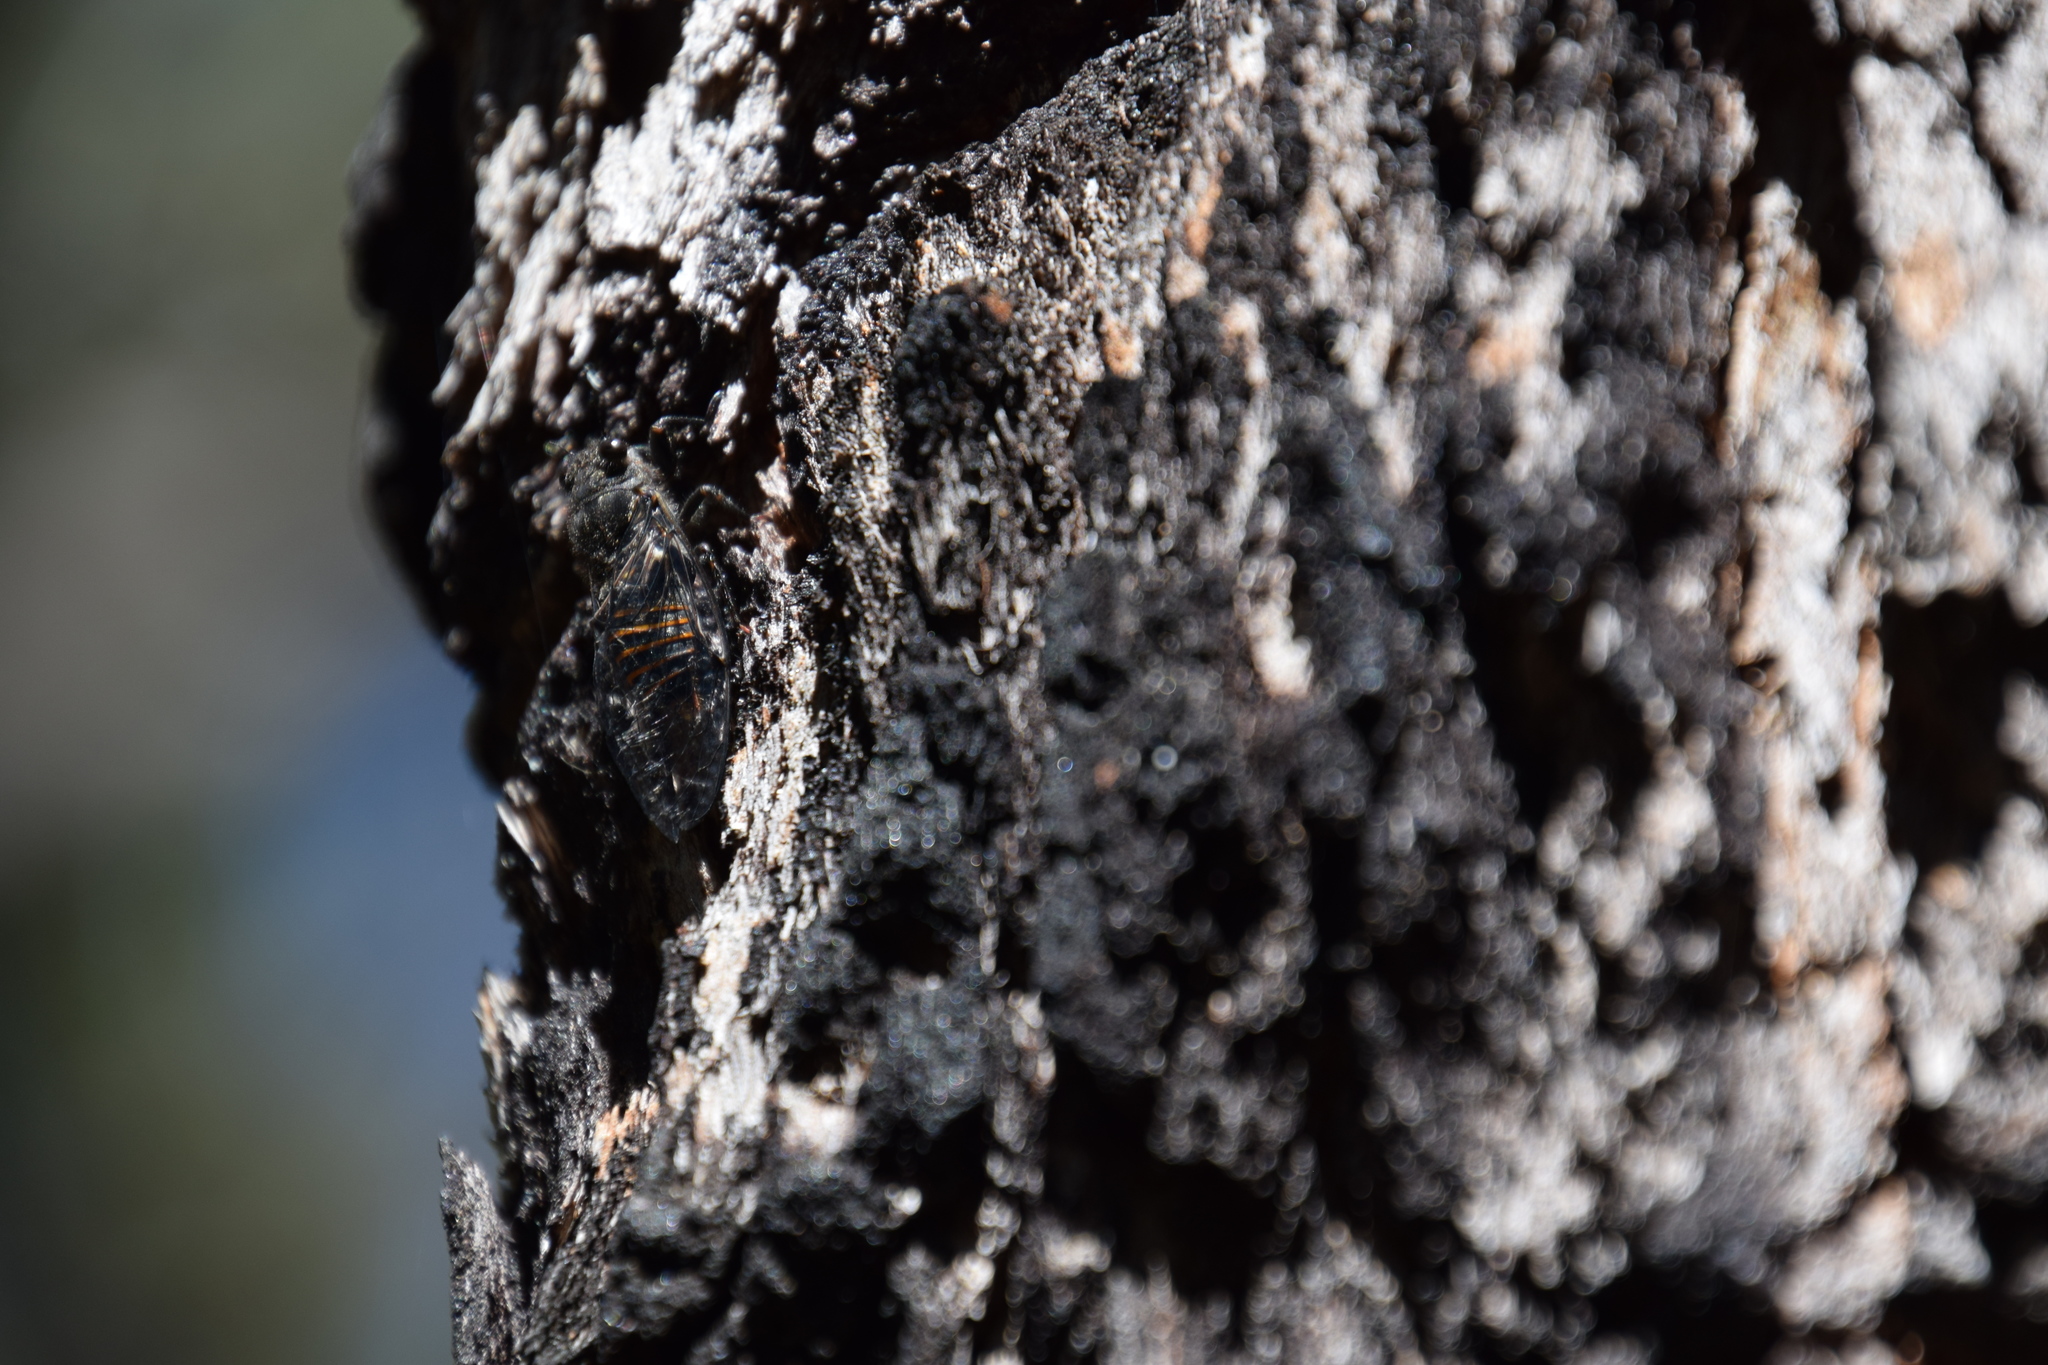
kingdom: Animalia
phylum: Arthropoda
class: Insecta
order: Hemiptera
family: Cicadidae
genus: Pauropsalta
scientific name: Pauropsalta mneme
